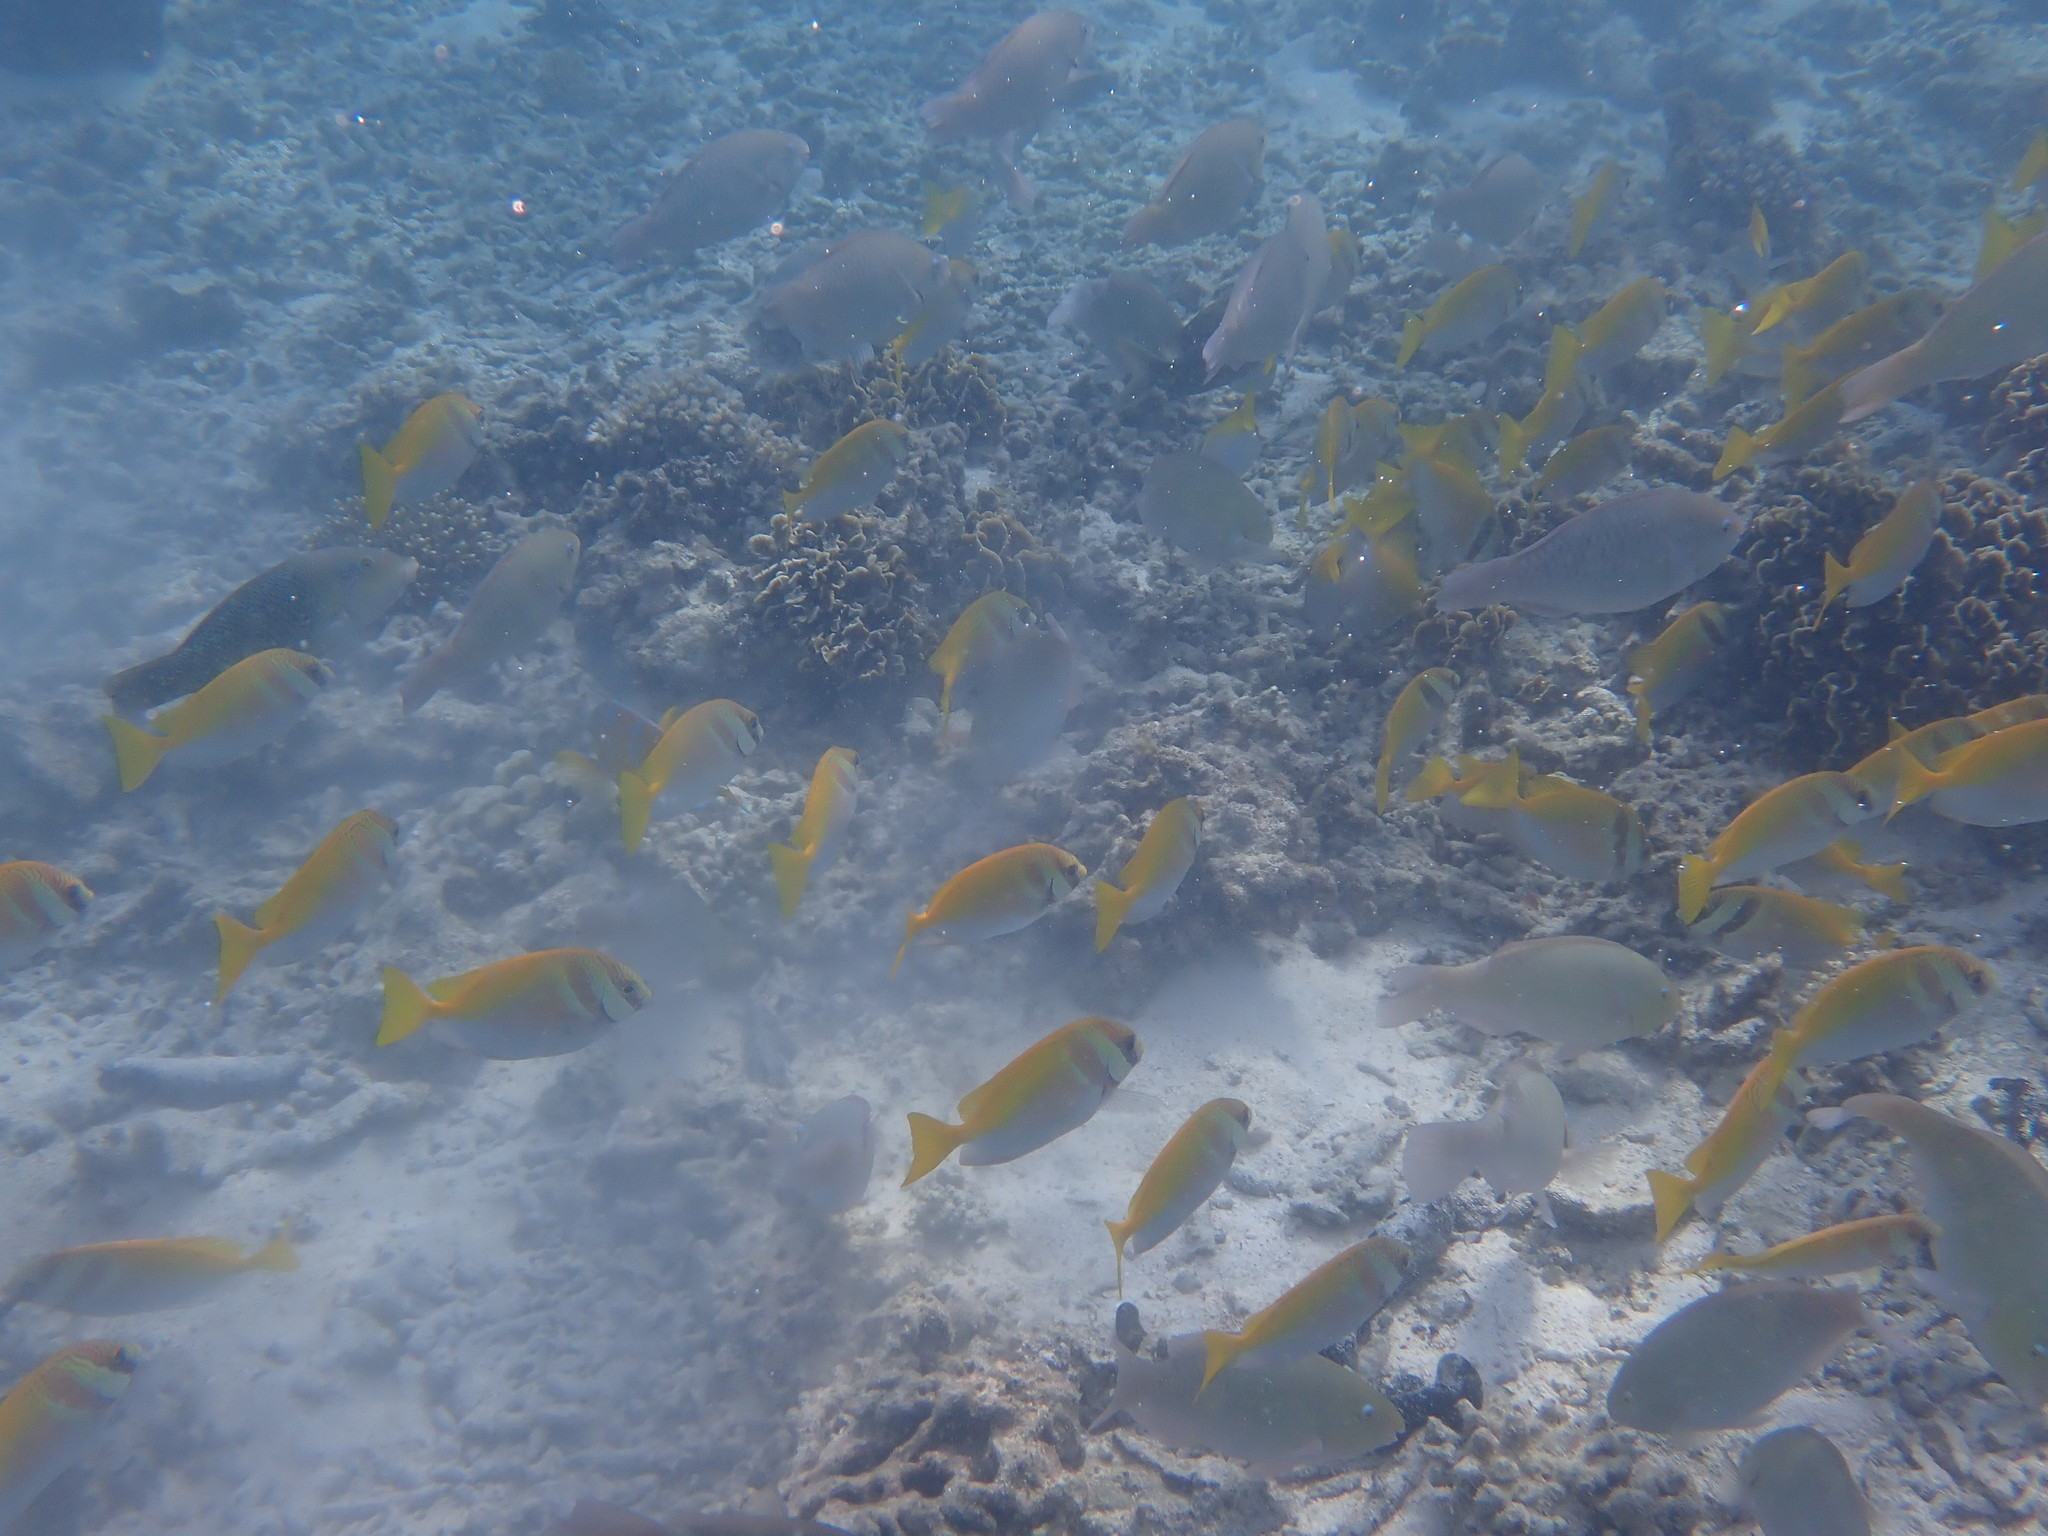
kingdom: Animalia
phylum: Chordata
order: Perciformes
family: Siganidae
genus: Siganus
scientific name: Siganus virgatus
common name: Barhead spinefoot
